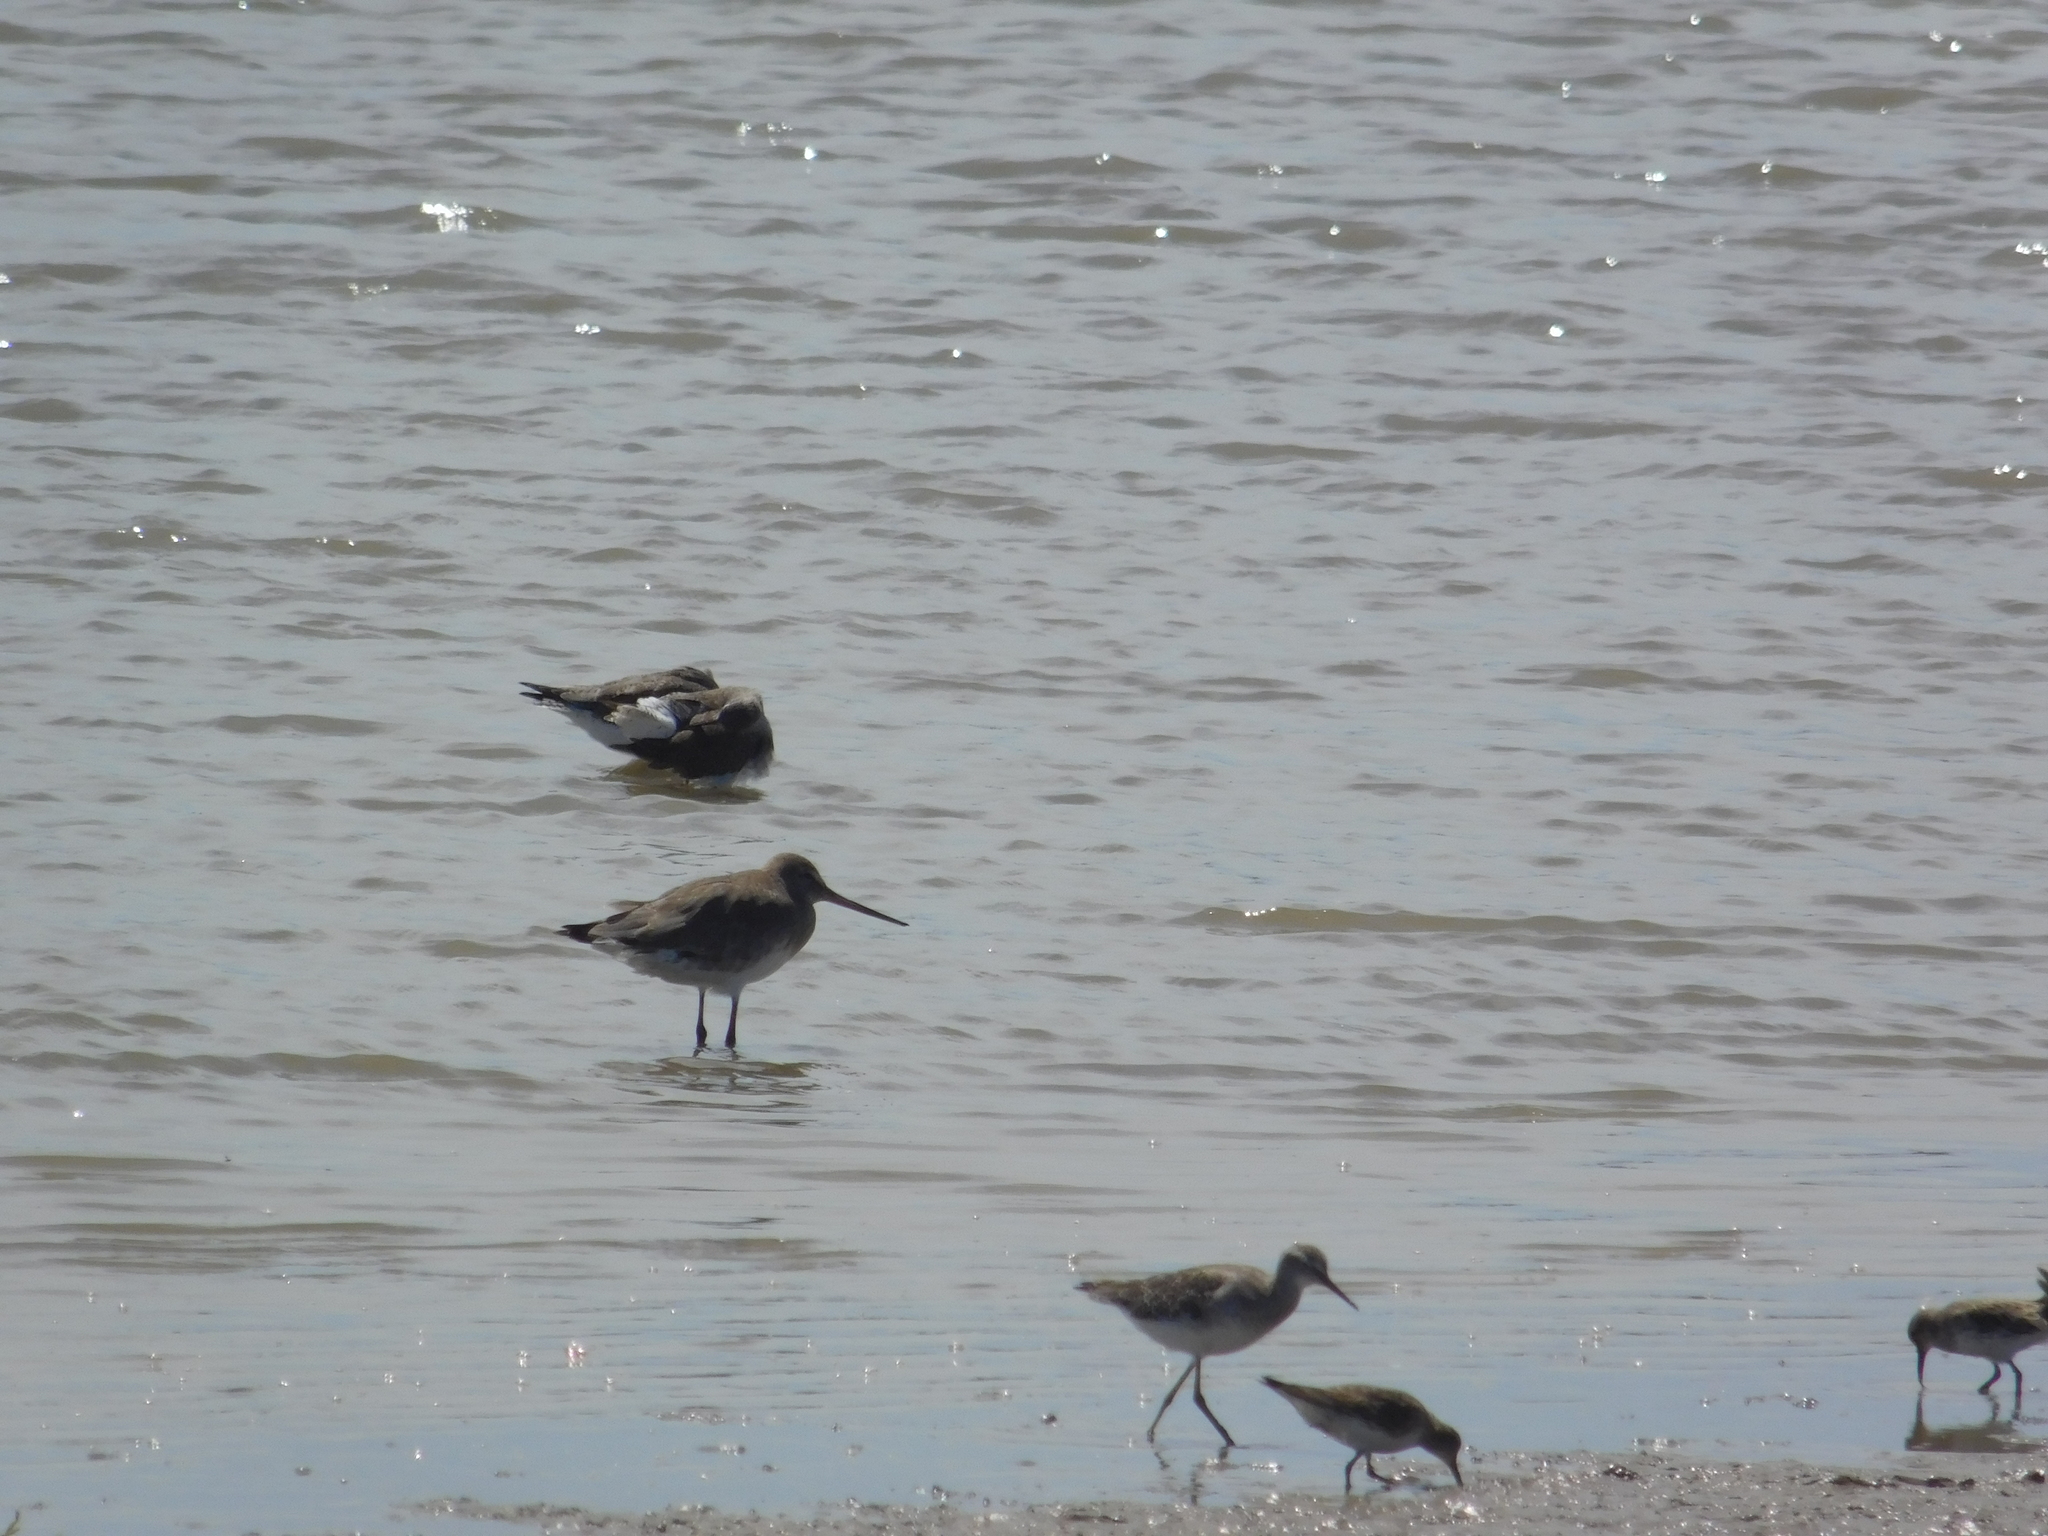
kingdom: Animalia
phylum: Chordata
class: Aves
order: Charadriiformes
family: Scolopacidae
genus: Limosa
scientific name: Limosa haemastica
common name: Hudsonian godwit
